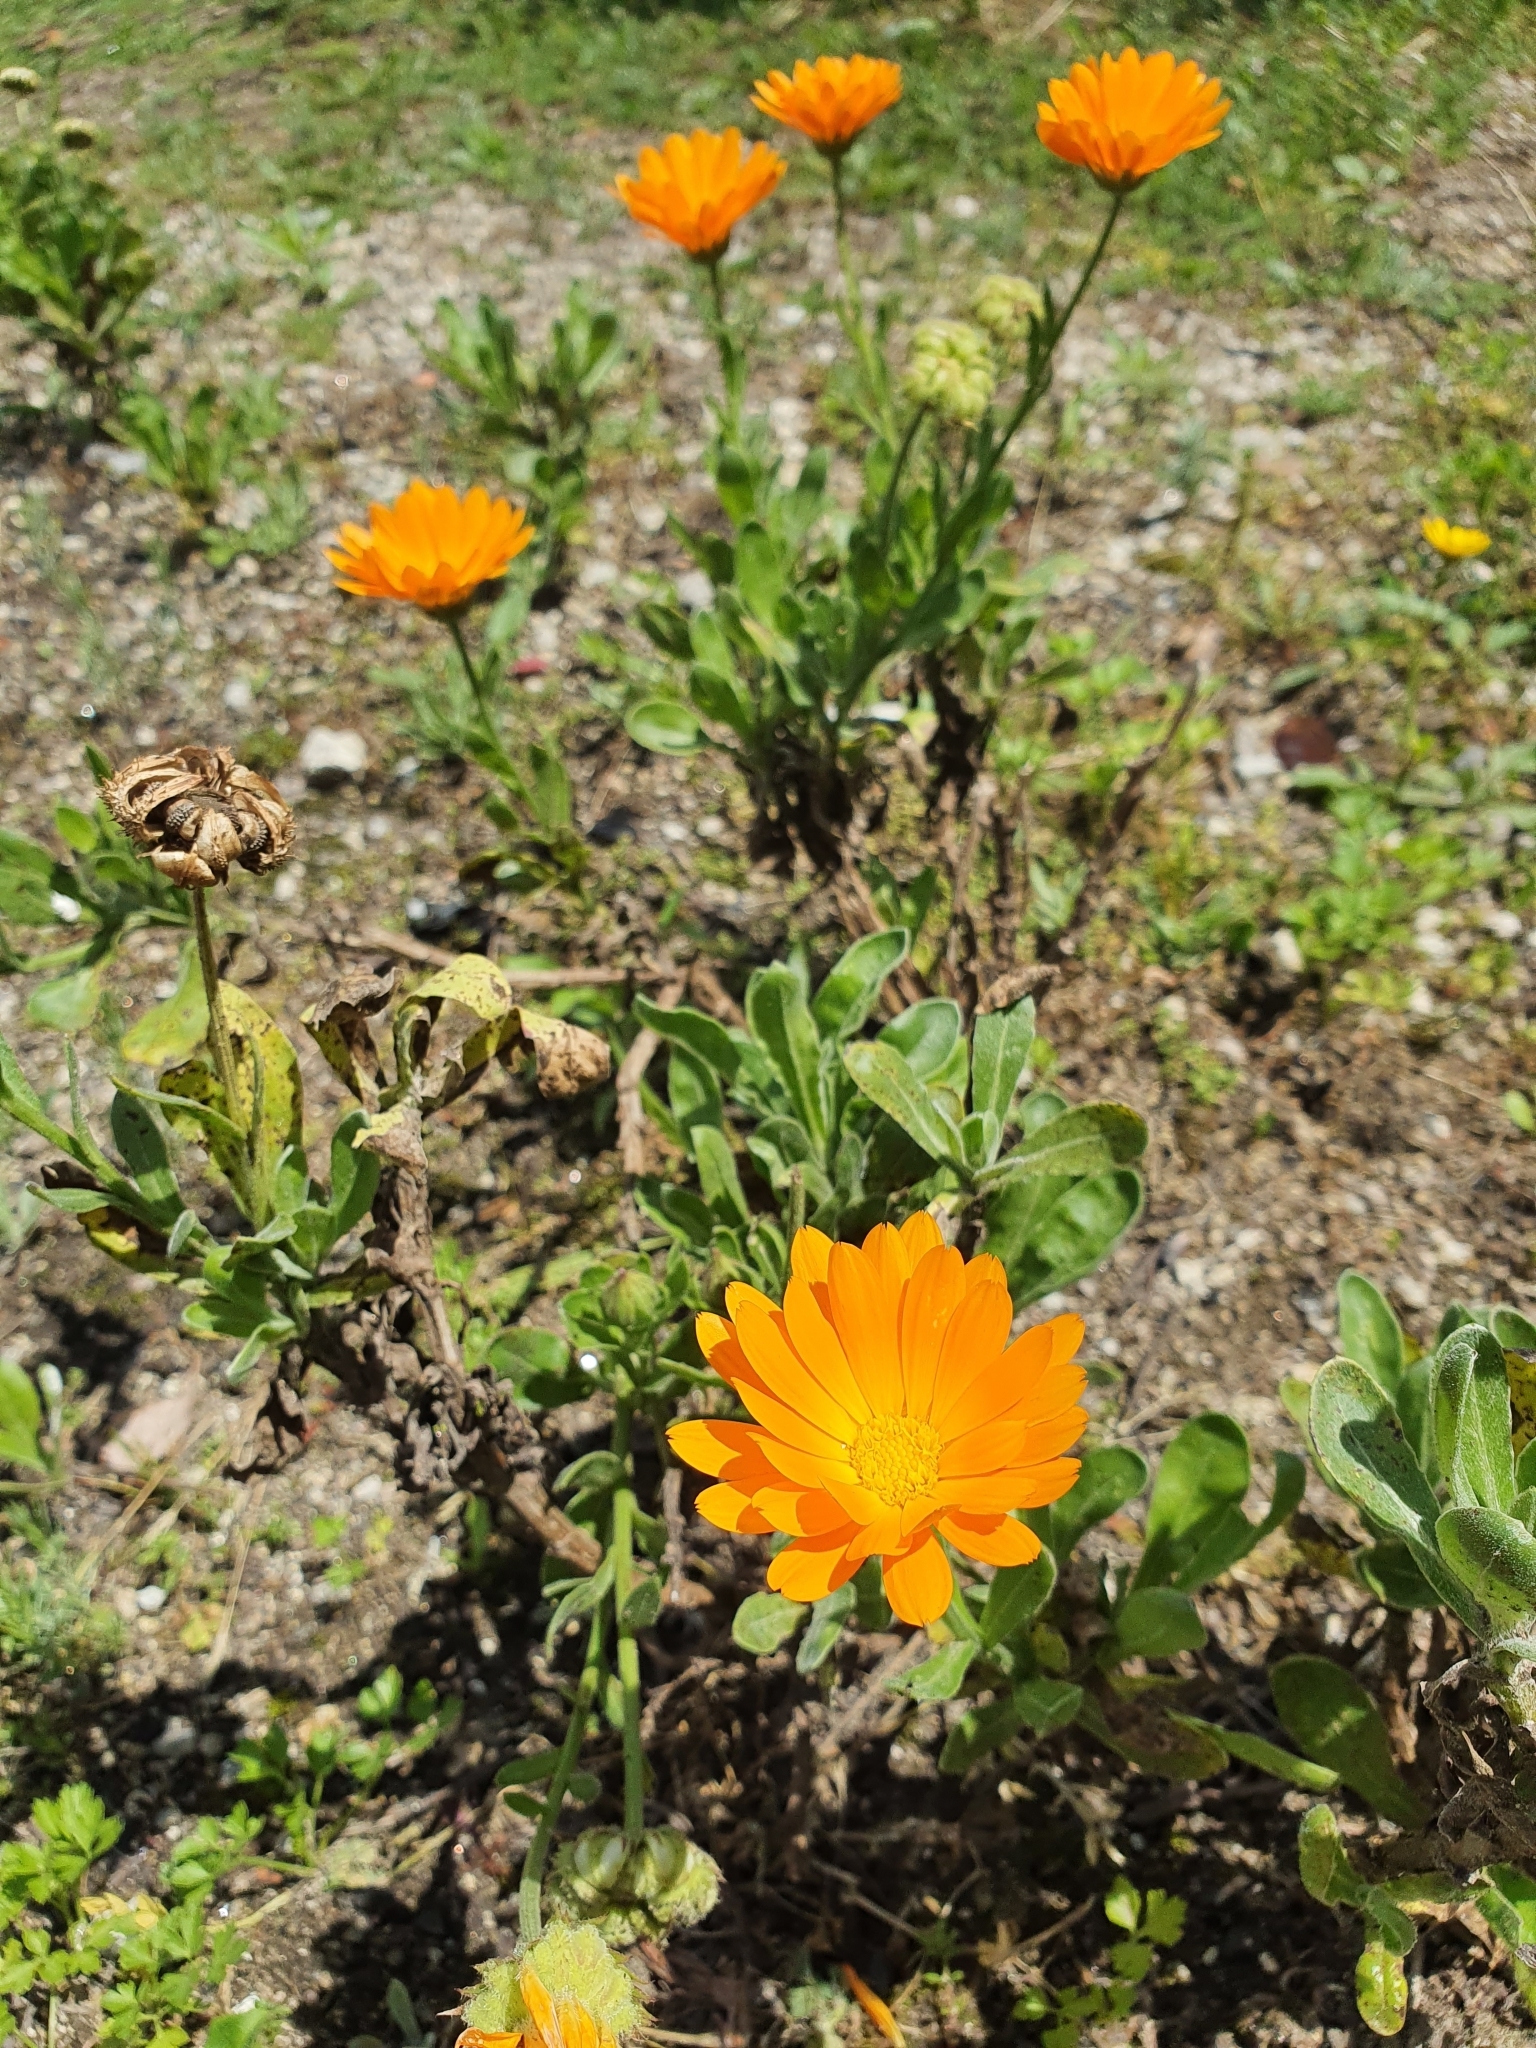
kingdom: Plantae
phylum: Tracheophyta
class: Magnoliopsida
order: Asterales
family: Asteraceae
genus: Calendula
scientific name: Calendula officinalis
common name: Pot marigold
